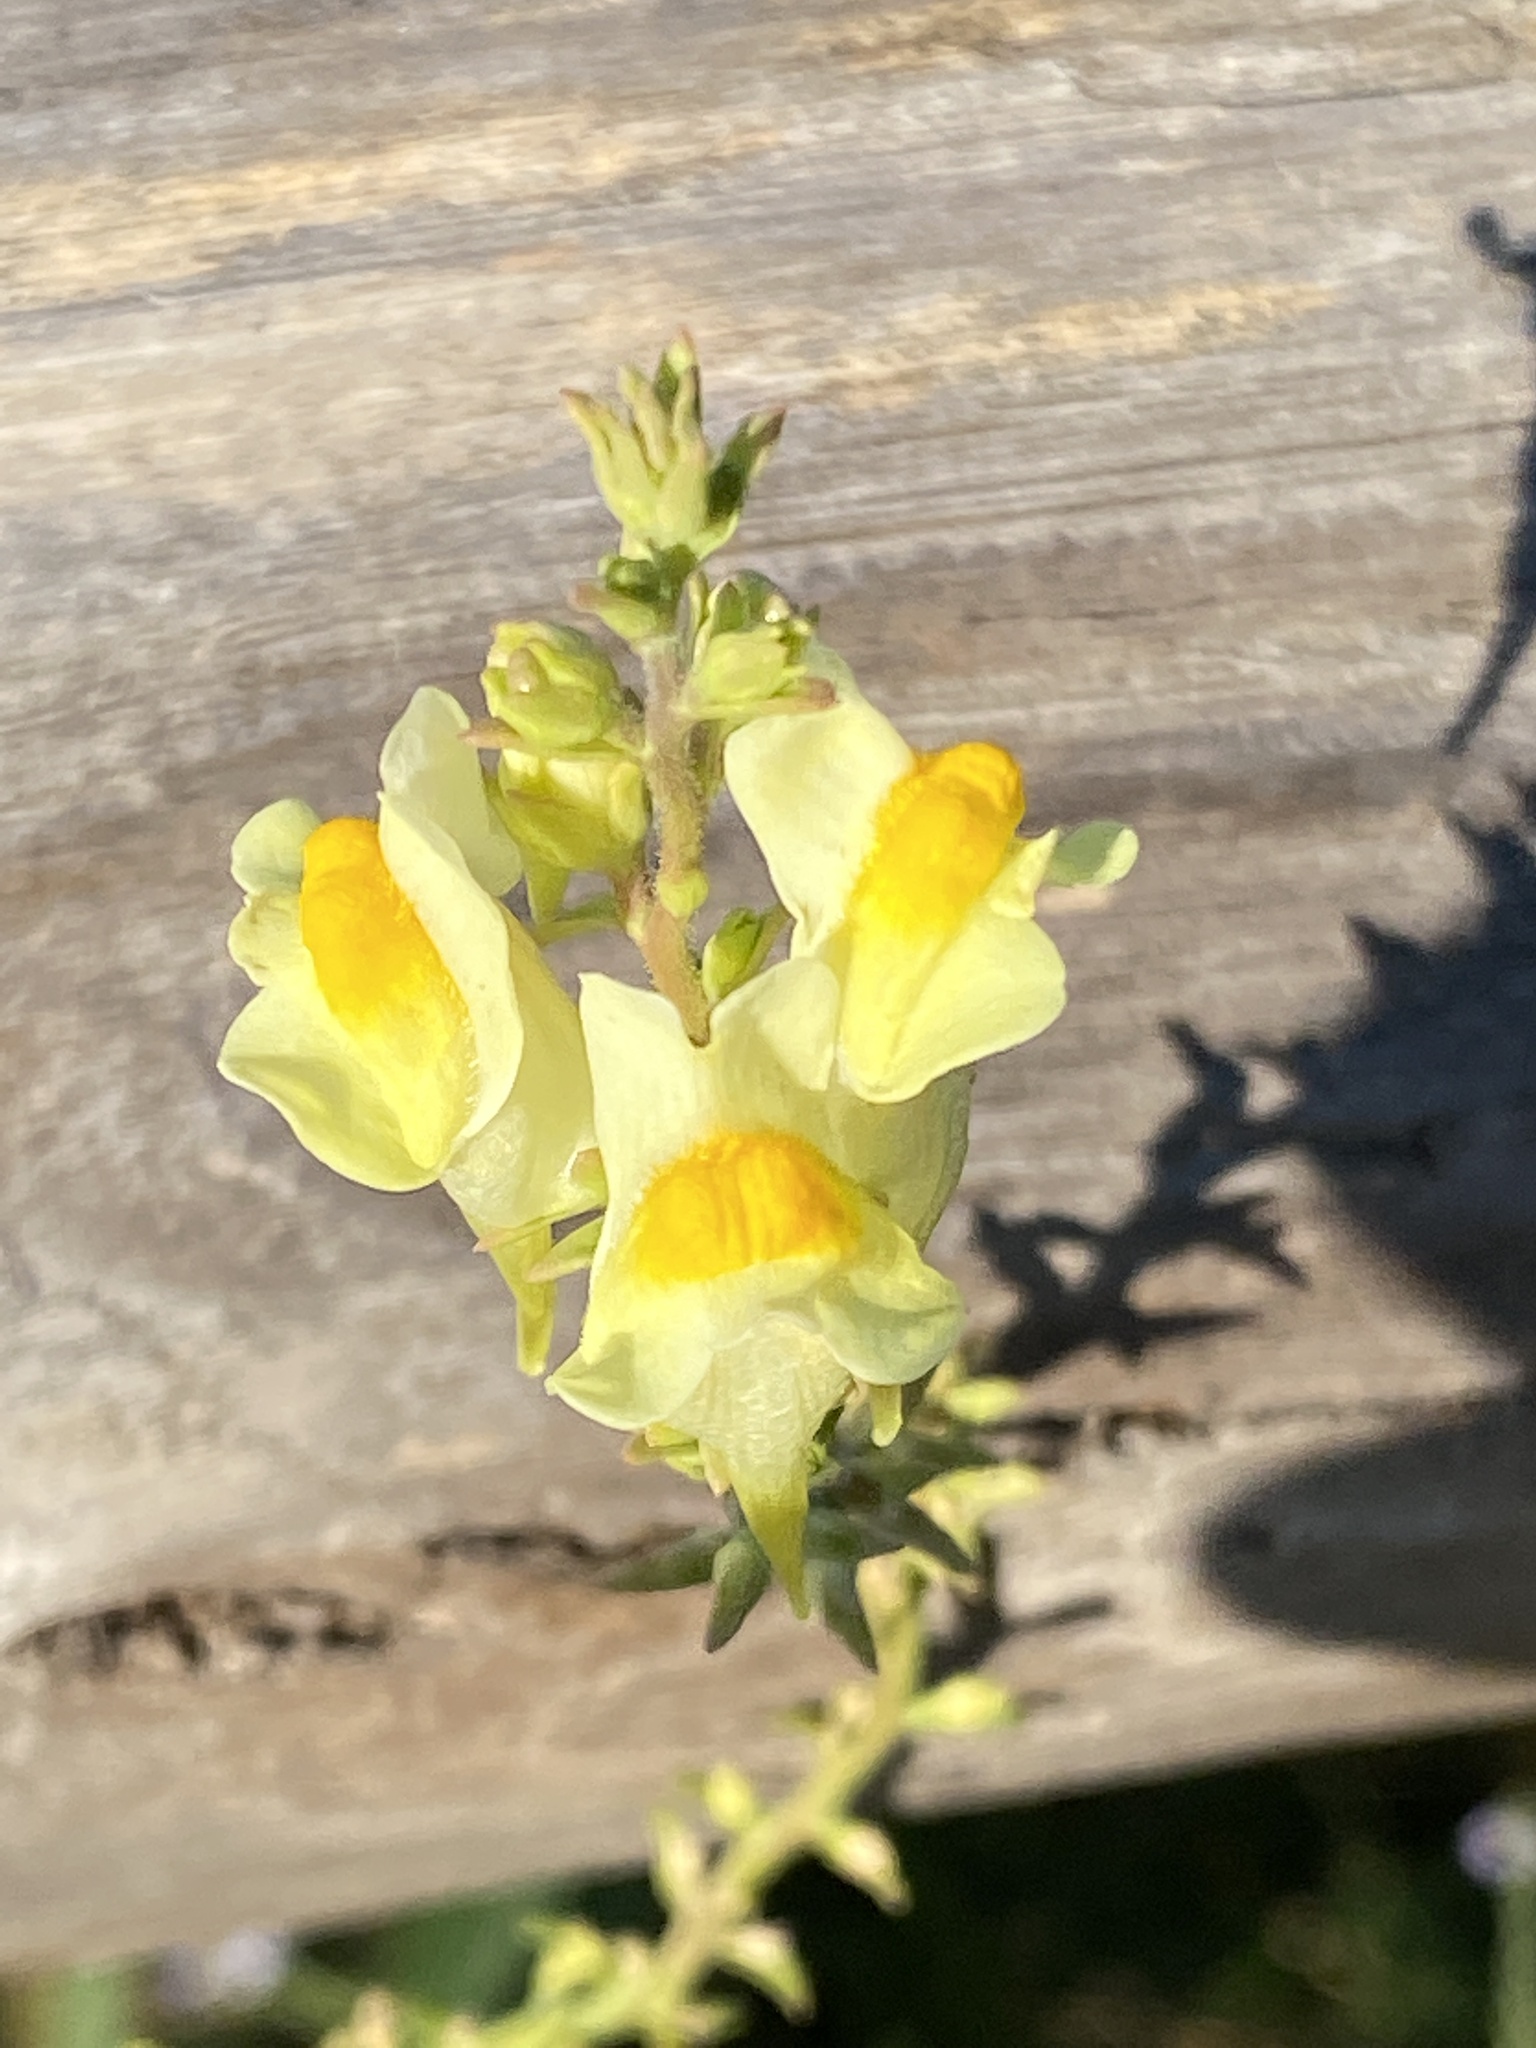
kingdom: Plantae
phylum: Tracheophyta
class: Magnoliopsida
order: Lamiales
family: Plantaginaceae
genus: Linaria
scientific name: Linaria vulgaris
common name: Butter and eggs
